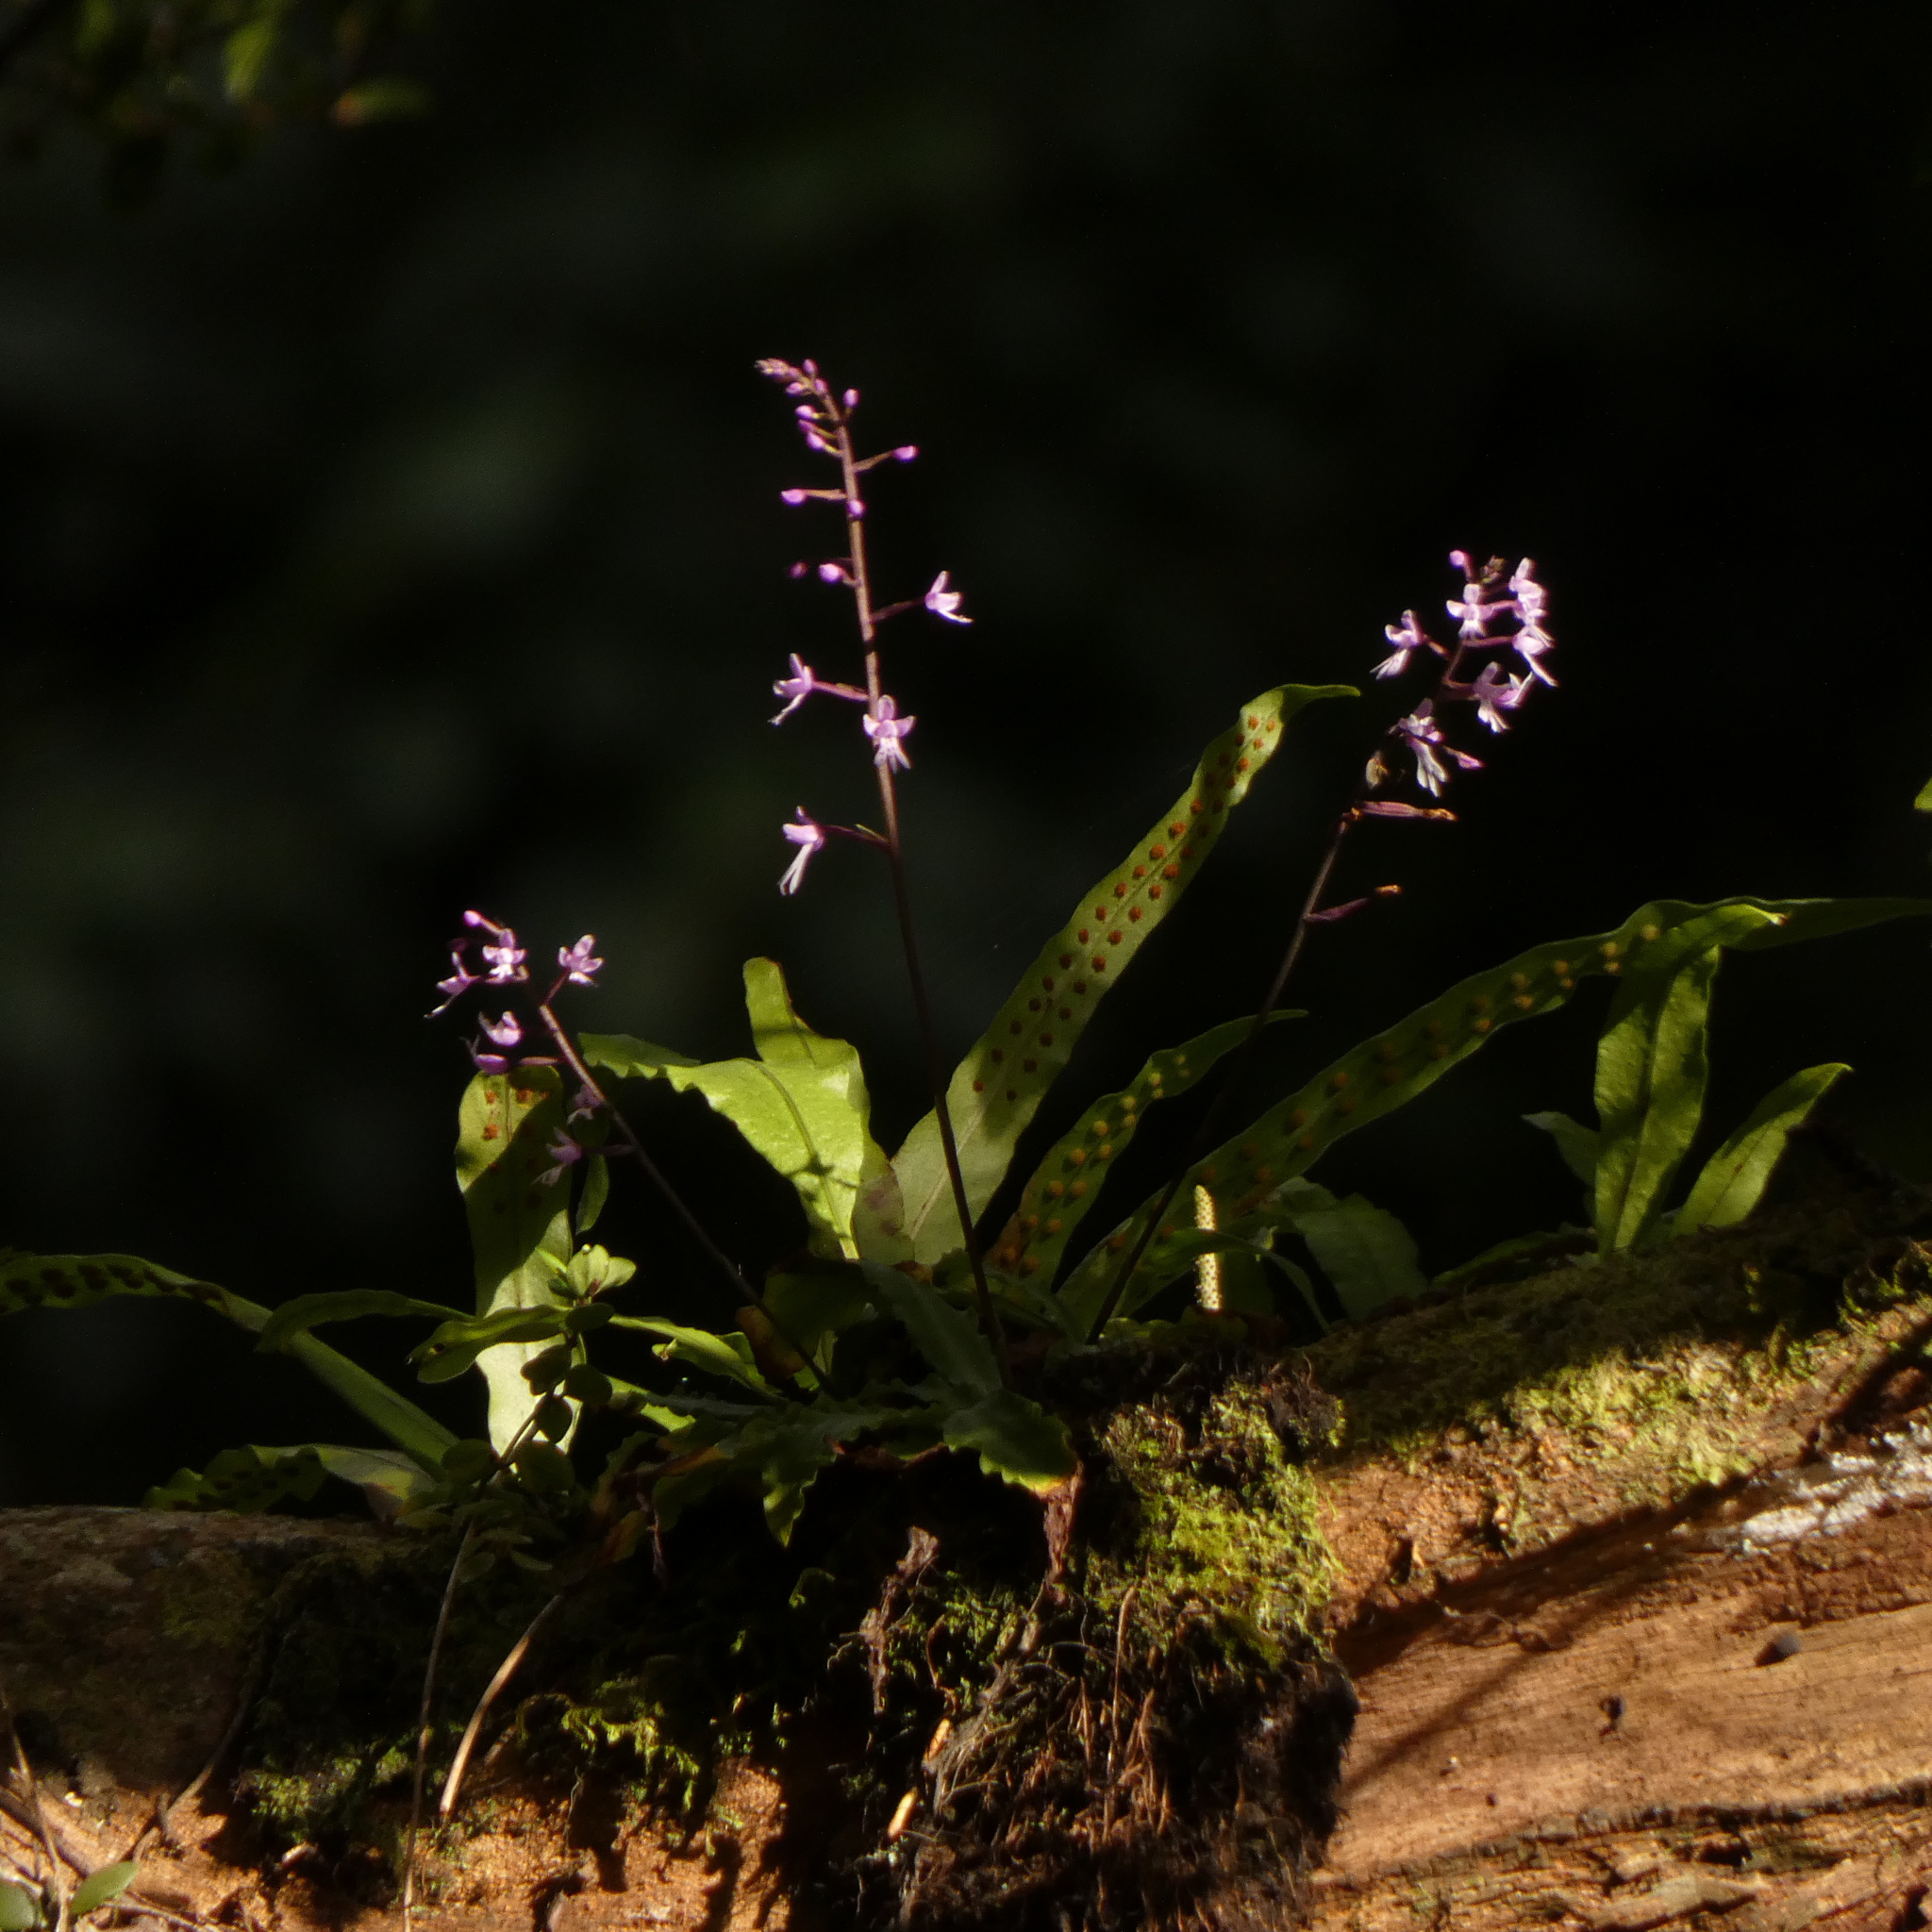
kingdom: Plantae
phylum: Tracheophyta
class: Liliopsida
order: Asparagales
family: Orchidaceae
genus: Stenoglottis
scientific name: Stenoglottis fimbriata
